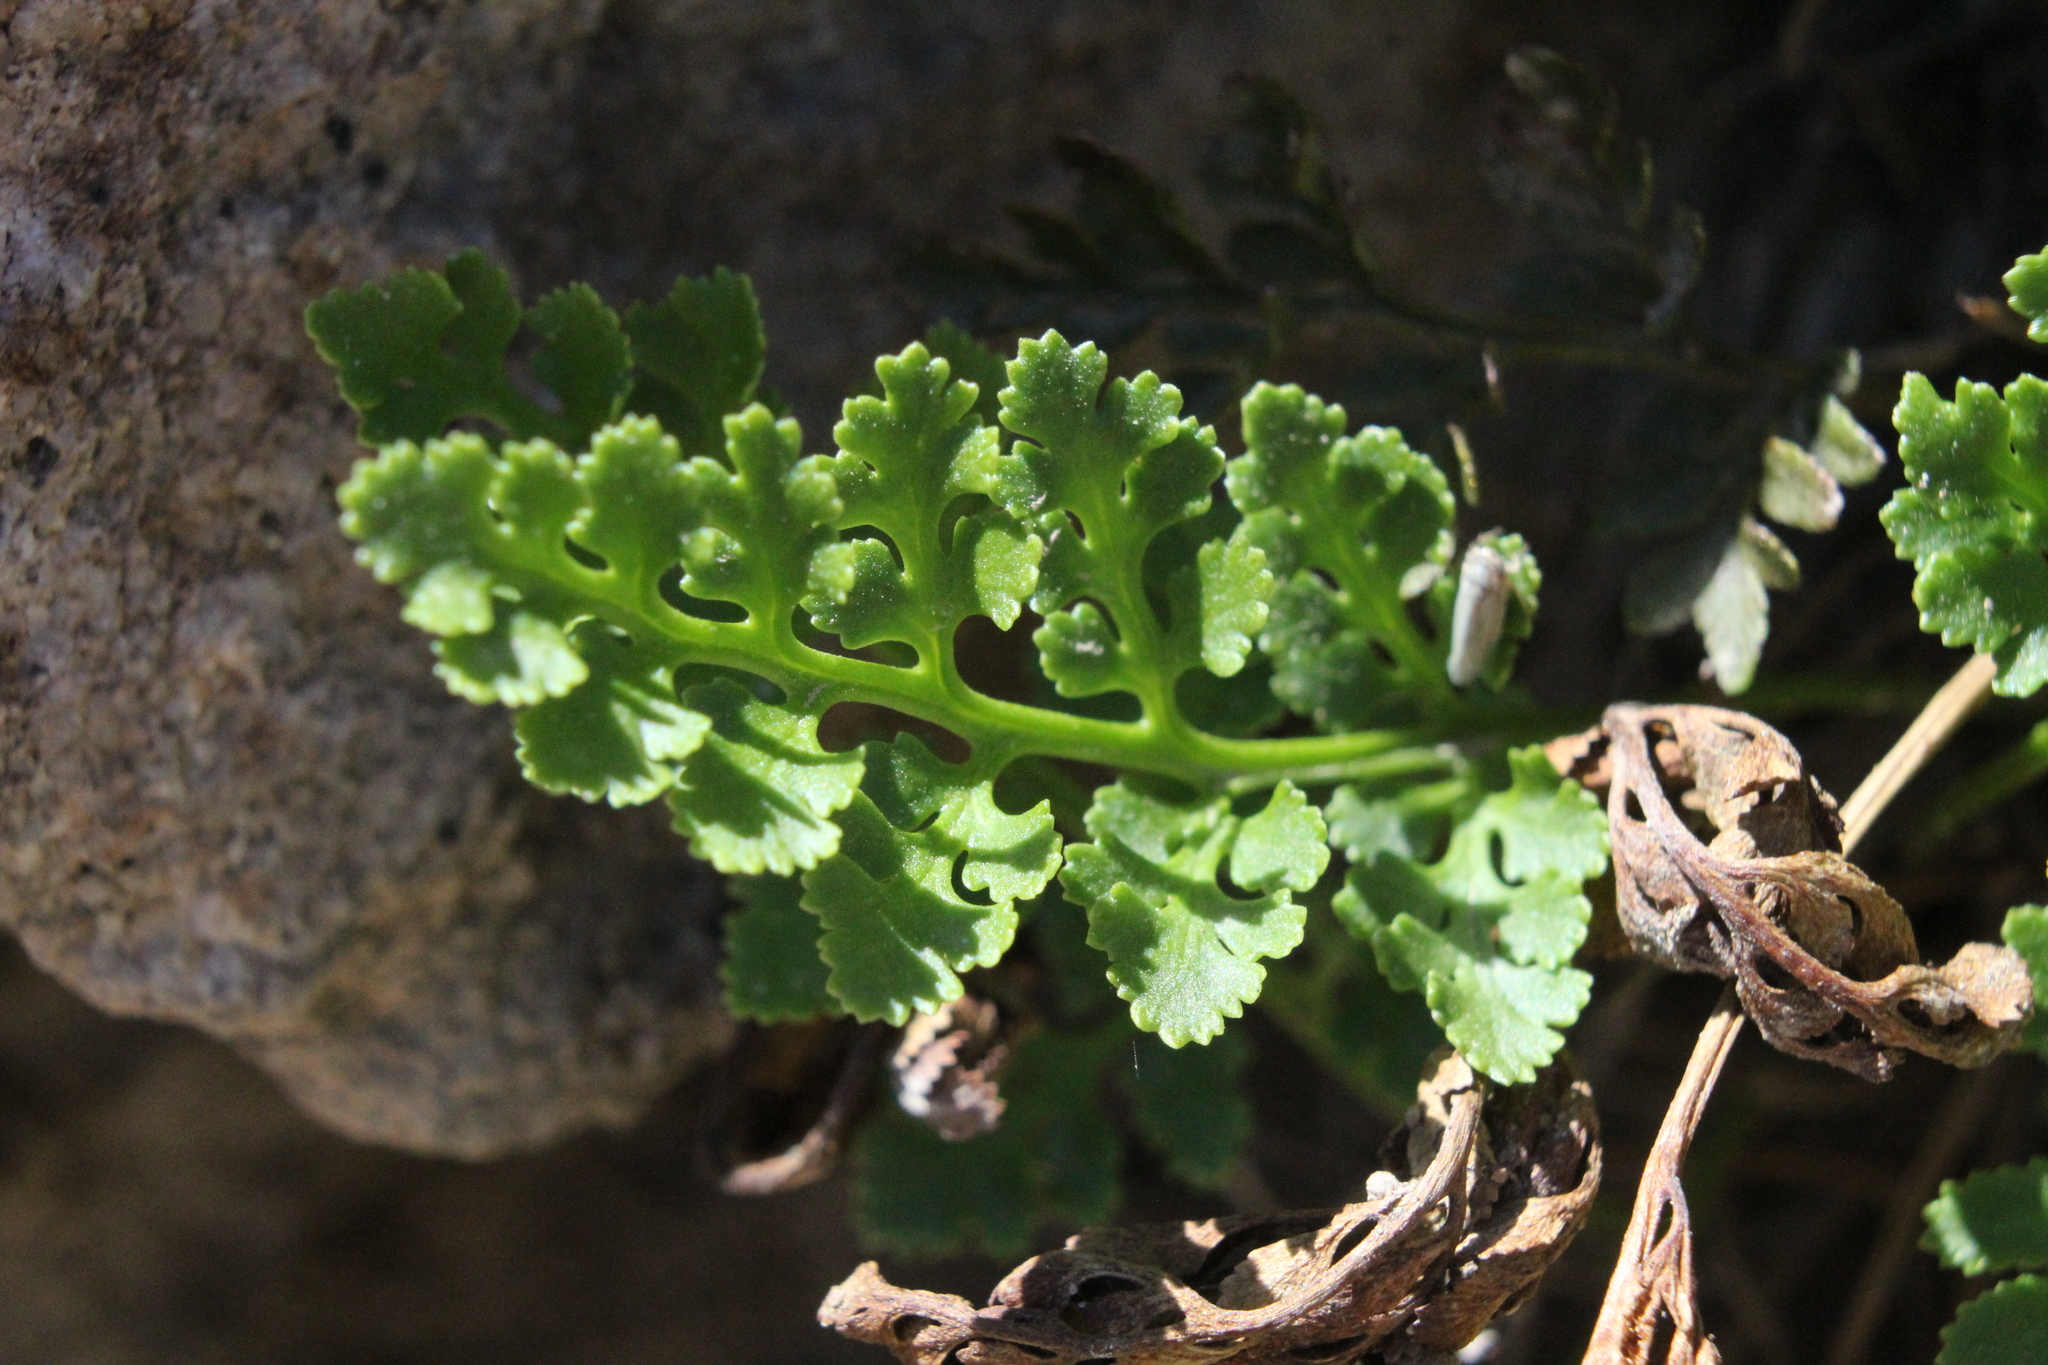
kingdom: Plantae
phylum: Tracheophyta
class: Polypodiopsida
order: Polypodiales
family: Pteridaceae
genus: Cryptogramma
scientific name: Cryptogramma acrostichoides
